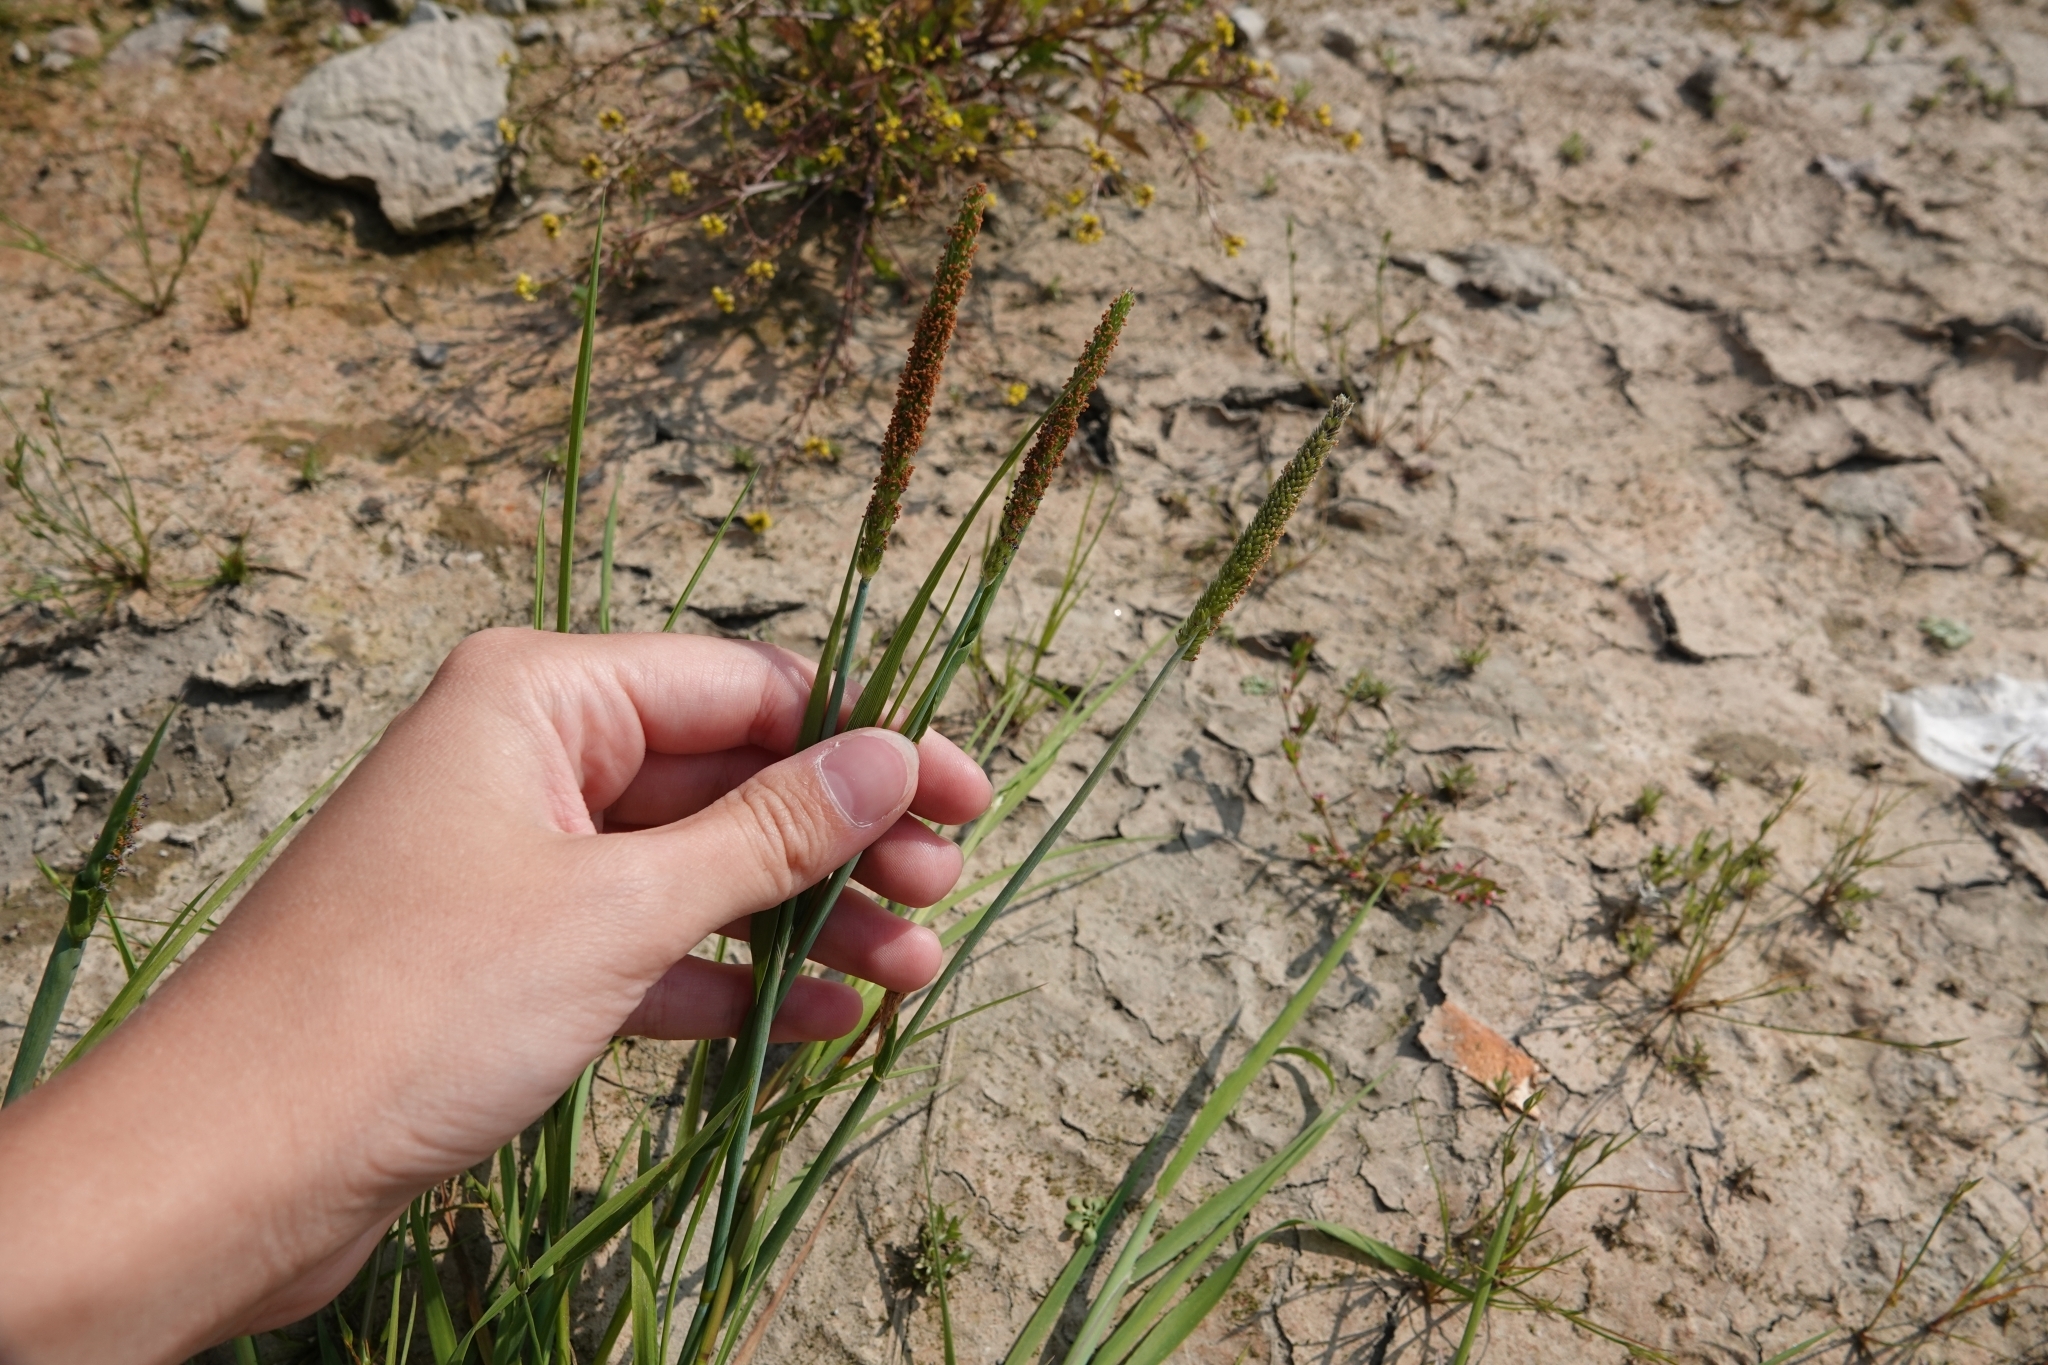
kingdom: Plantae
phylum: Tracheophyta
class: Liliopsida
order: Poales
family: Poaceae
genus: Alopecurus
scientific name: Alopecurus aequalis
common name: Orange foxtail
